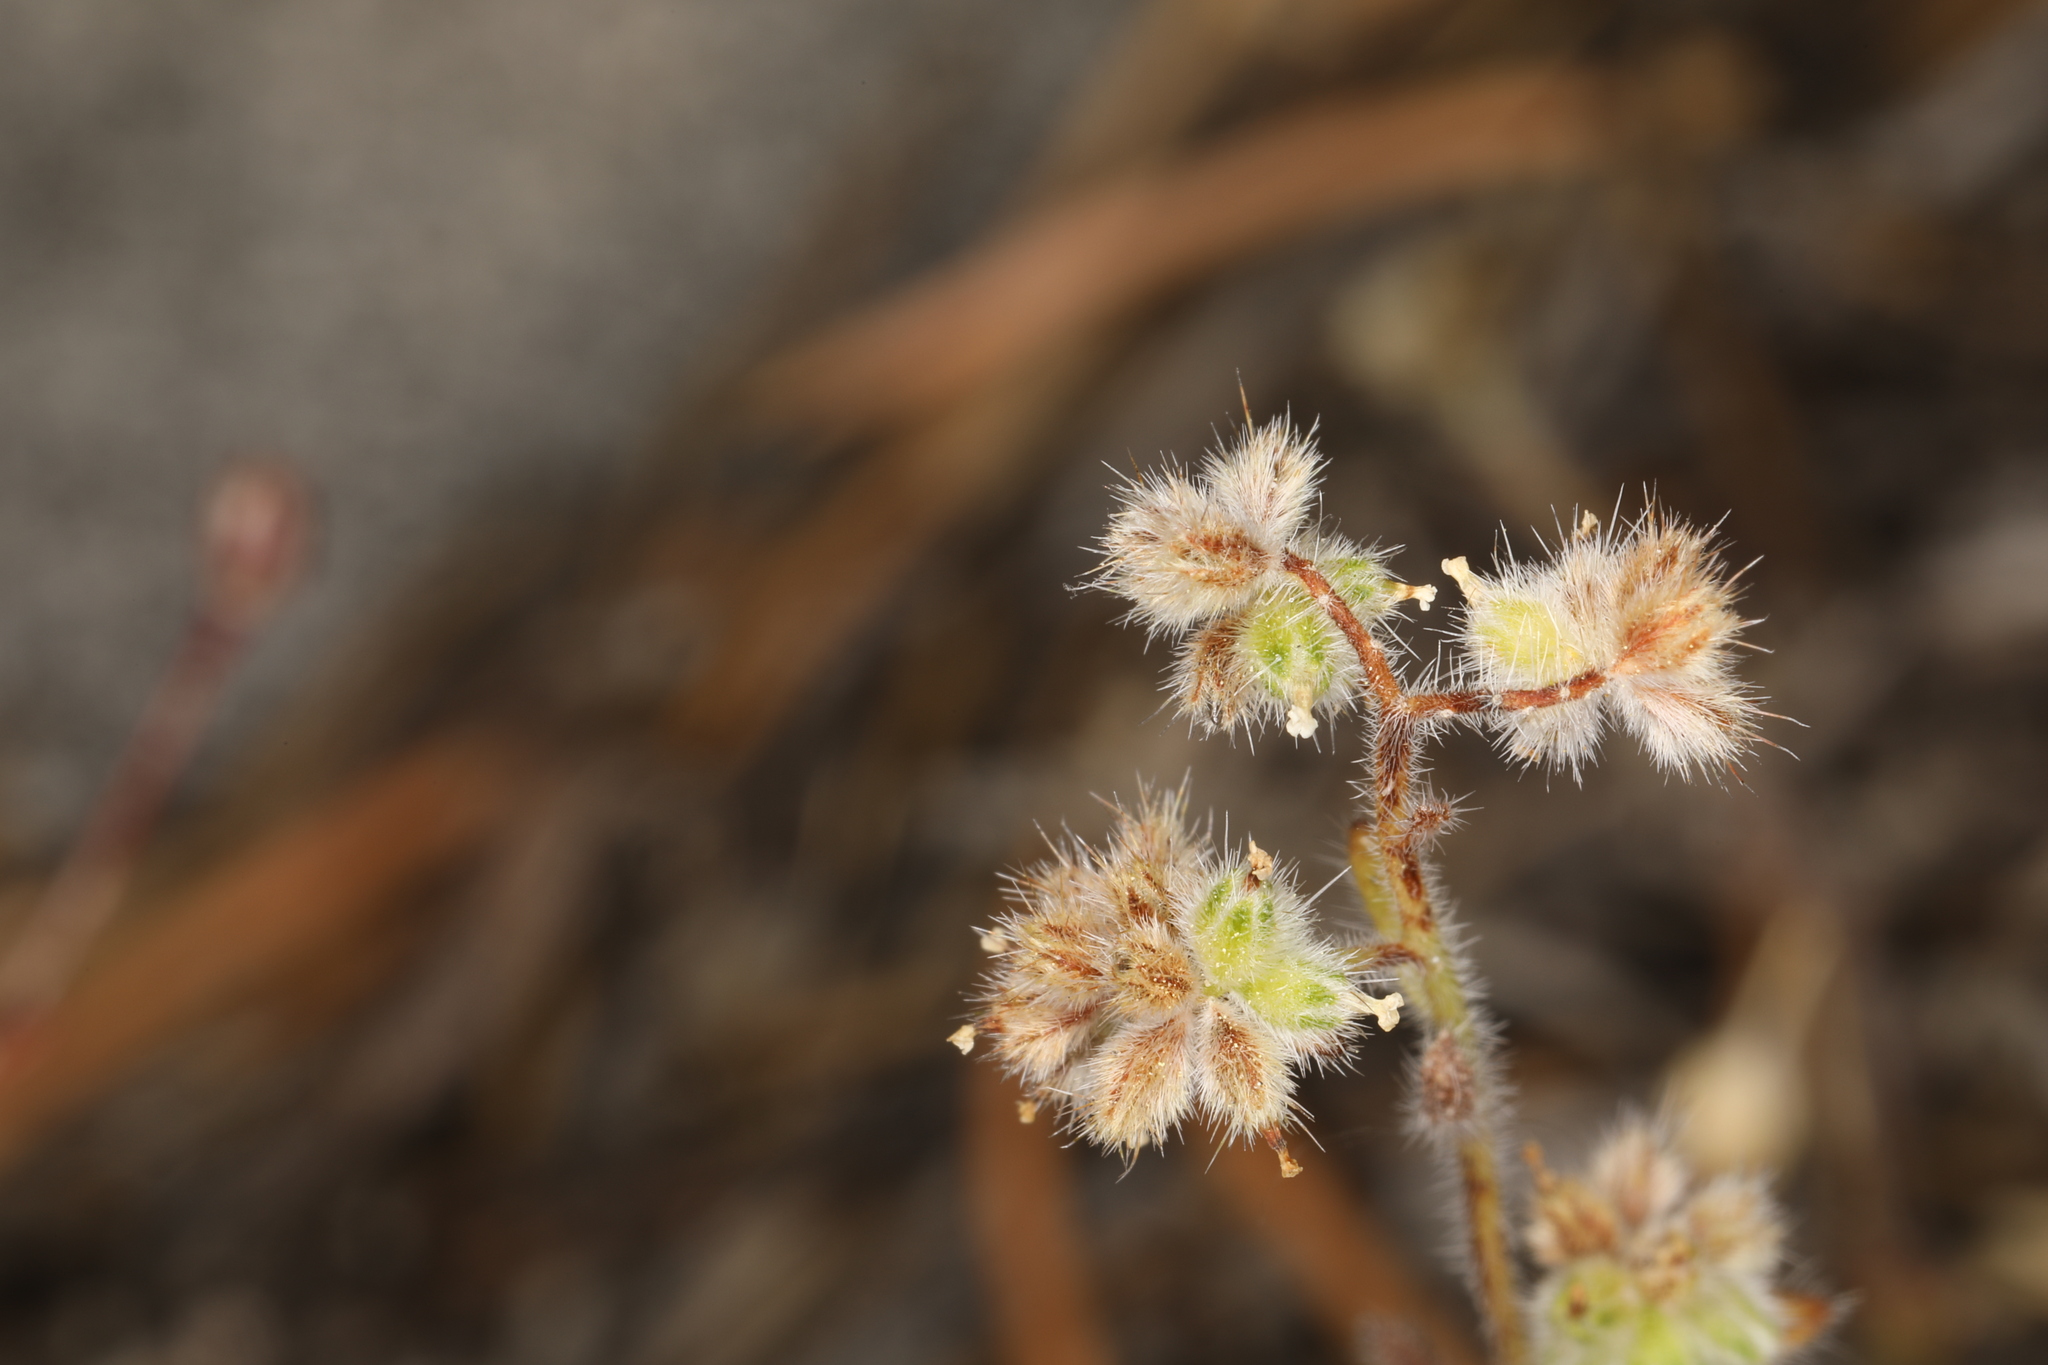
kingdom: Plantae
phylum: Tracheophyta
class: Magnoliopsida
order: Boraginales
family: Boraginaceae
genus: Cryptantha
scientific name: Cryptantha gracilis
